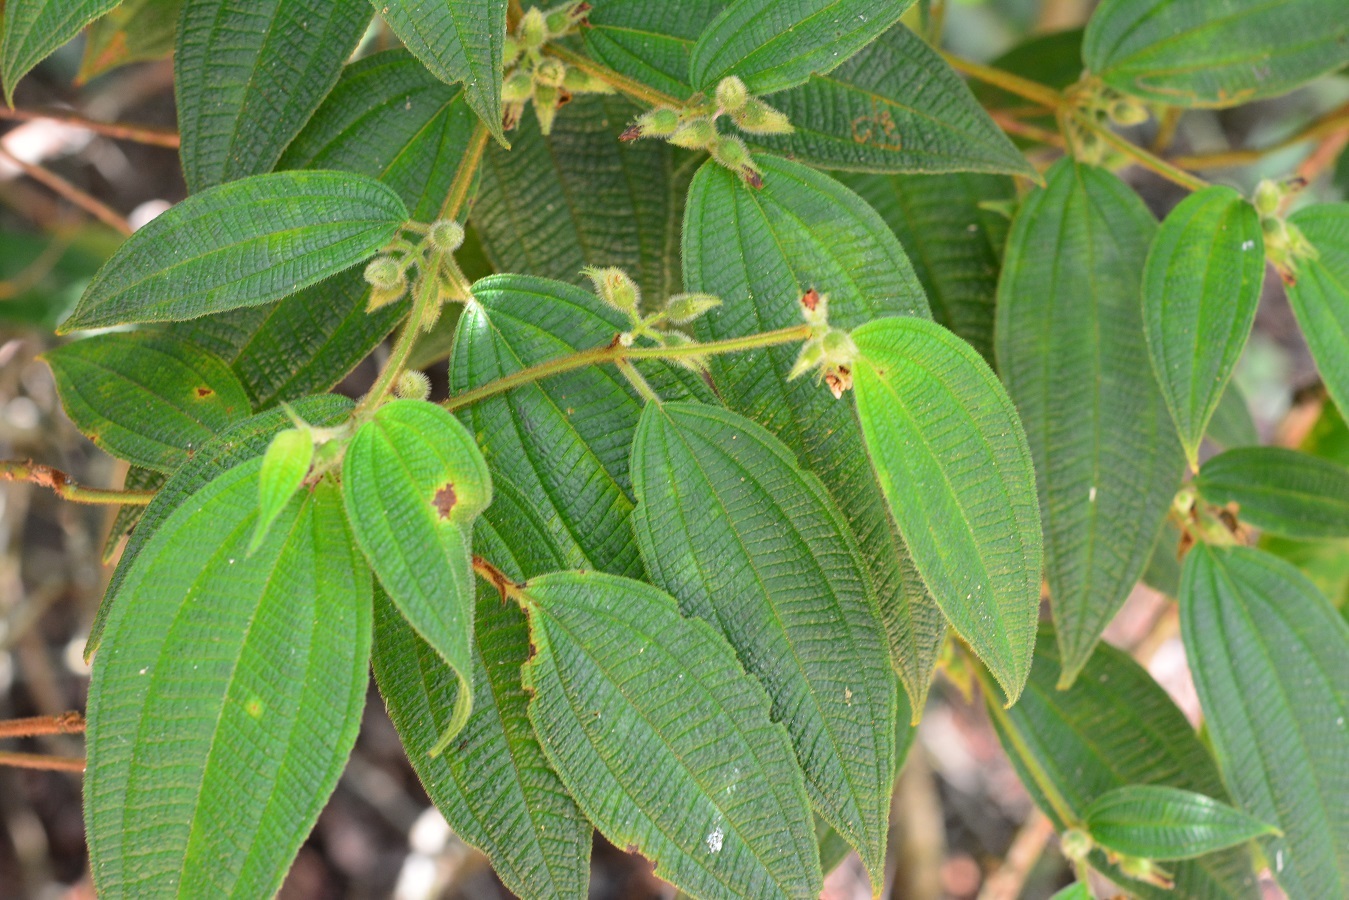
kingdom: Plantae
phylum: Tracheophyta
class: Magnoliopsida
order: Myrtales
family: Melastomataceae
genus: Miconia
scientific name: Miconia dentata
